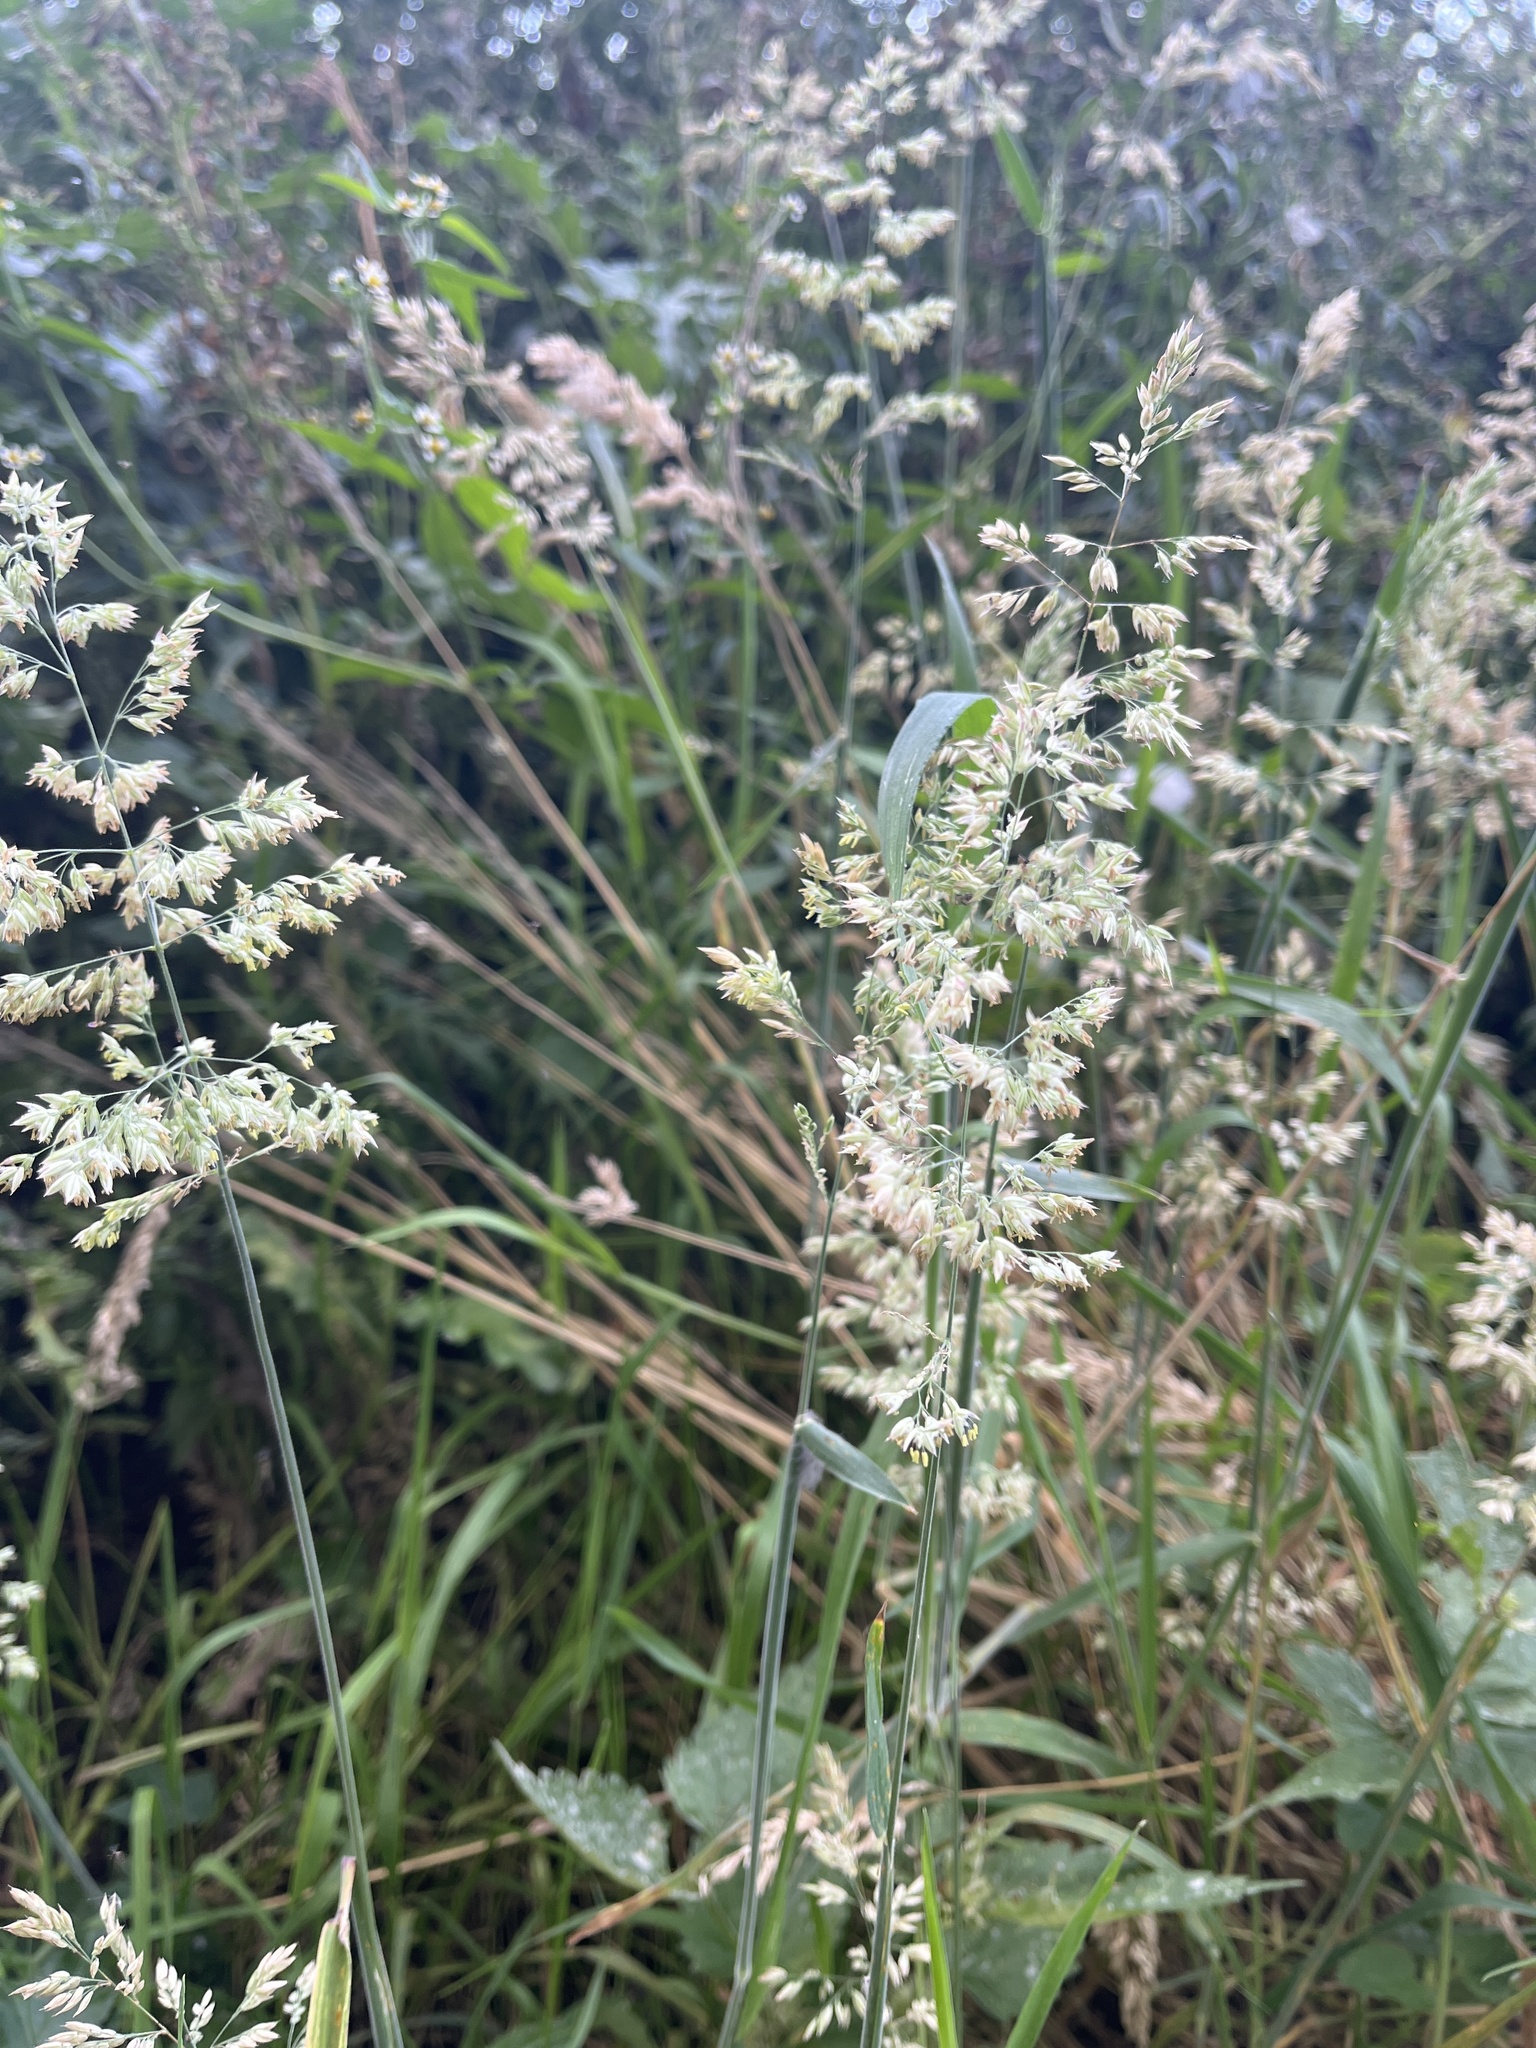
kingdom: Plantae
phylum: Tracheophyta
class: Liliopsida
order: Poales
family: Poaceae
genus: Holcus
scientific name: Holcus lanatus
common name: Yorkshire-fog
